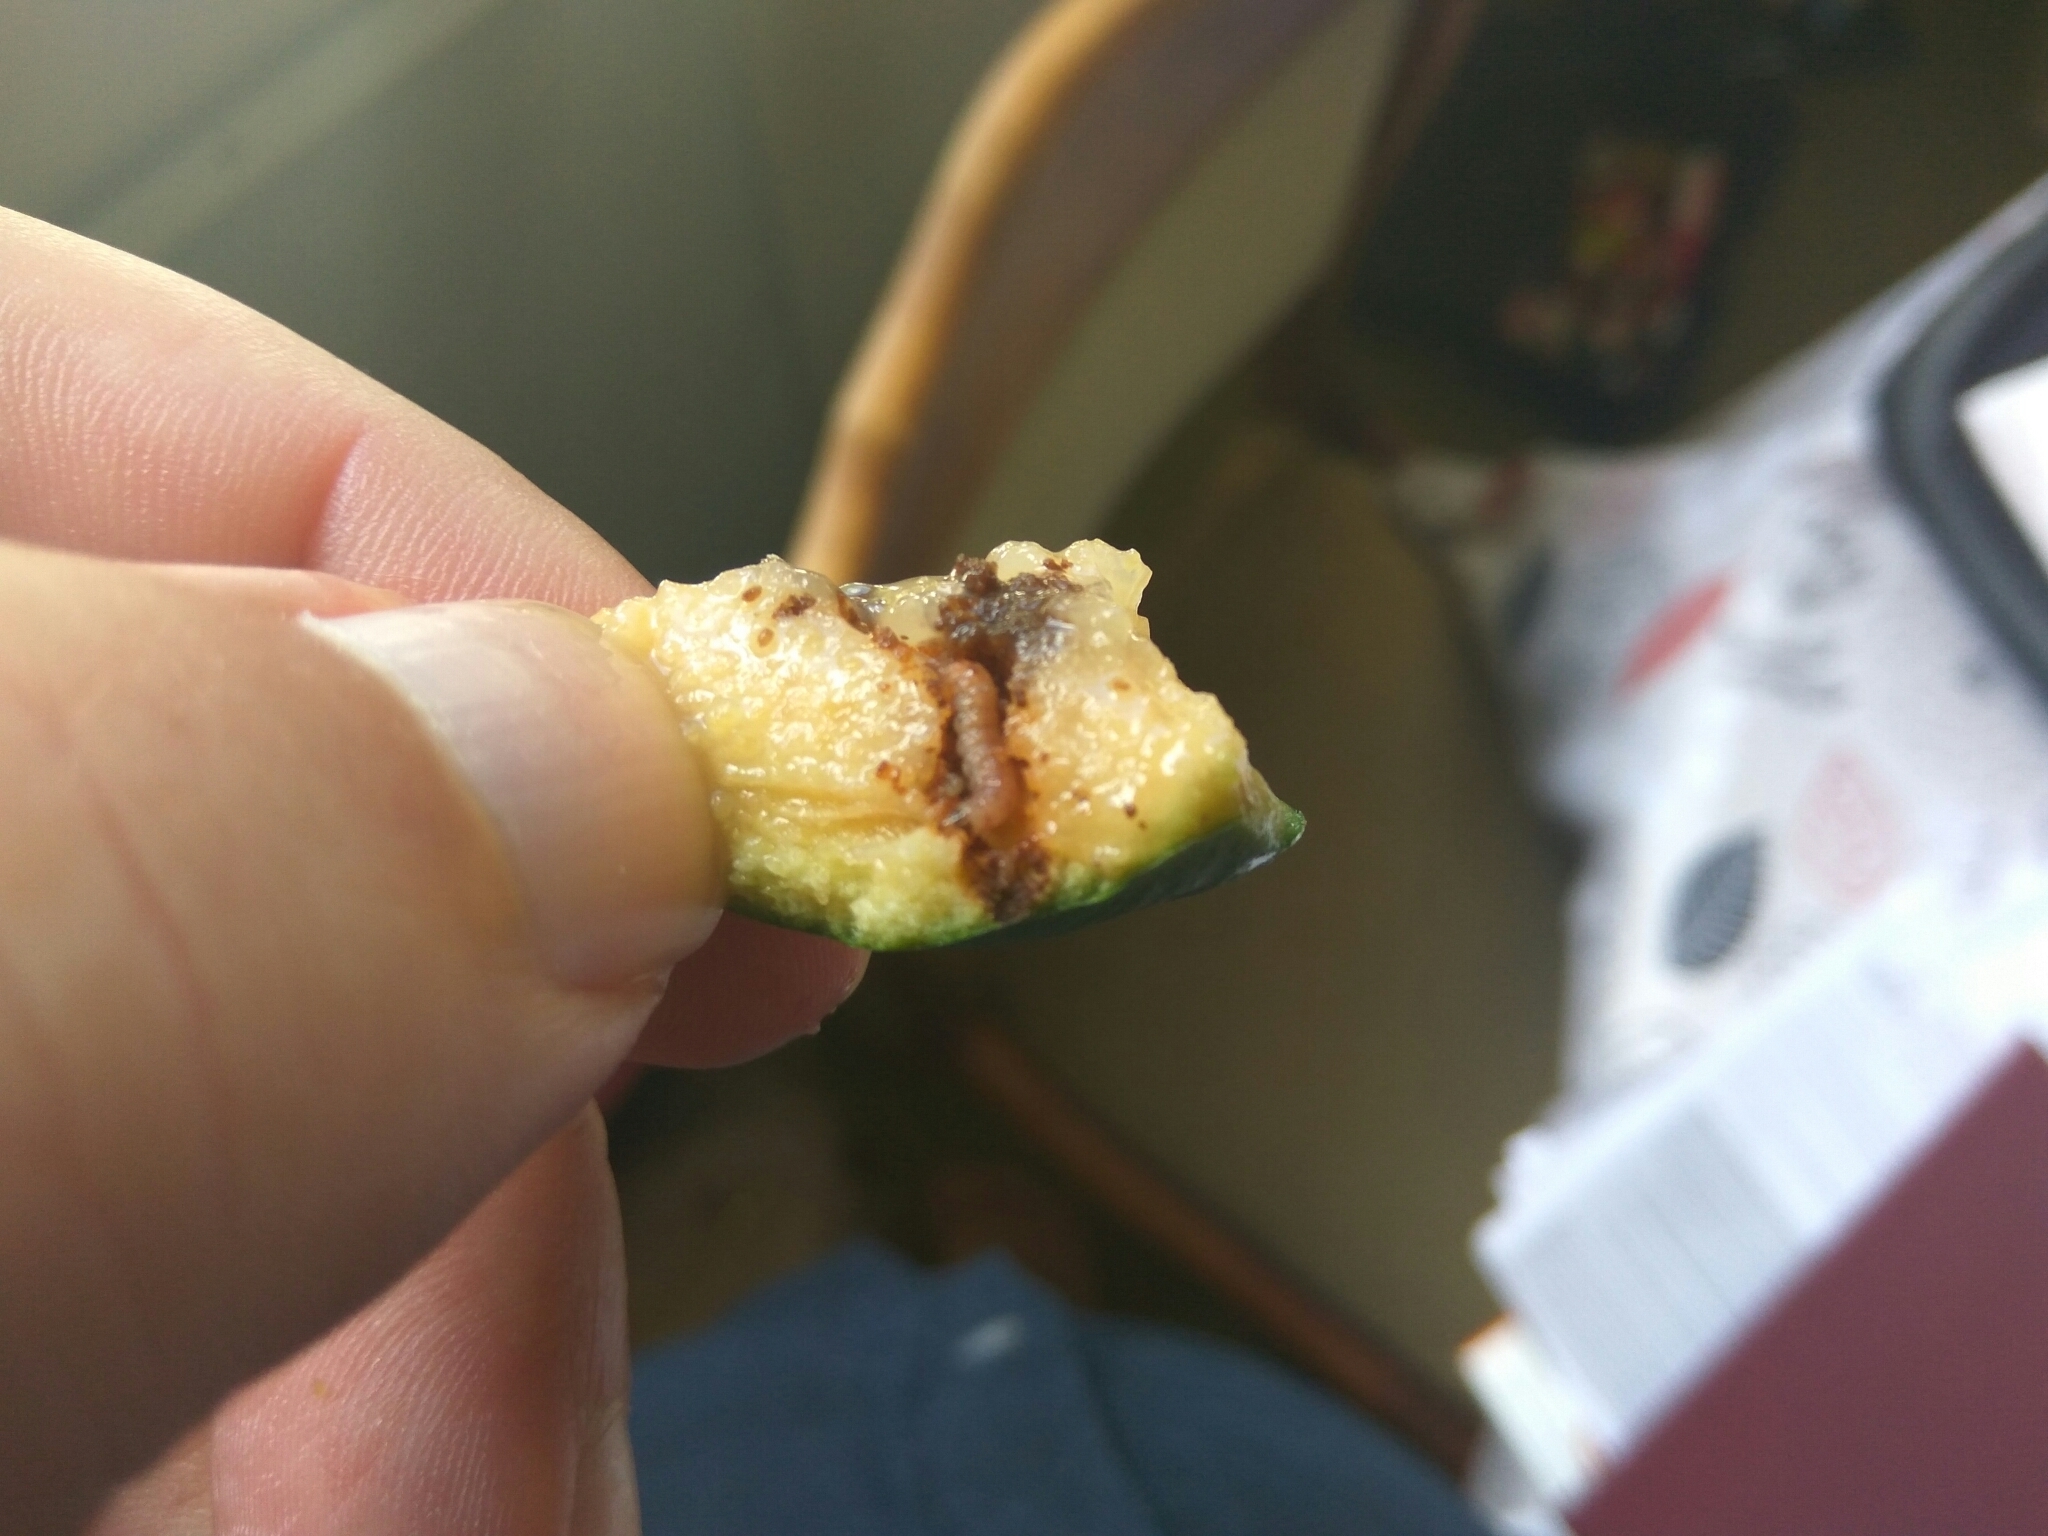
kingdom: Animalia
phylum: Arthropoda
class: Insecta
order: Lepidoptera
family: Carposinidae
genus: Coscinoptycha
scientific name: Coscinoptycha improbana
